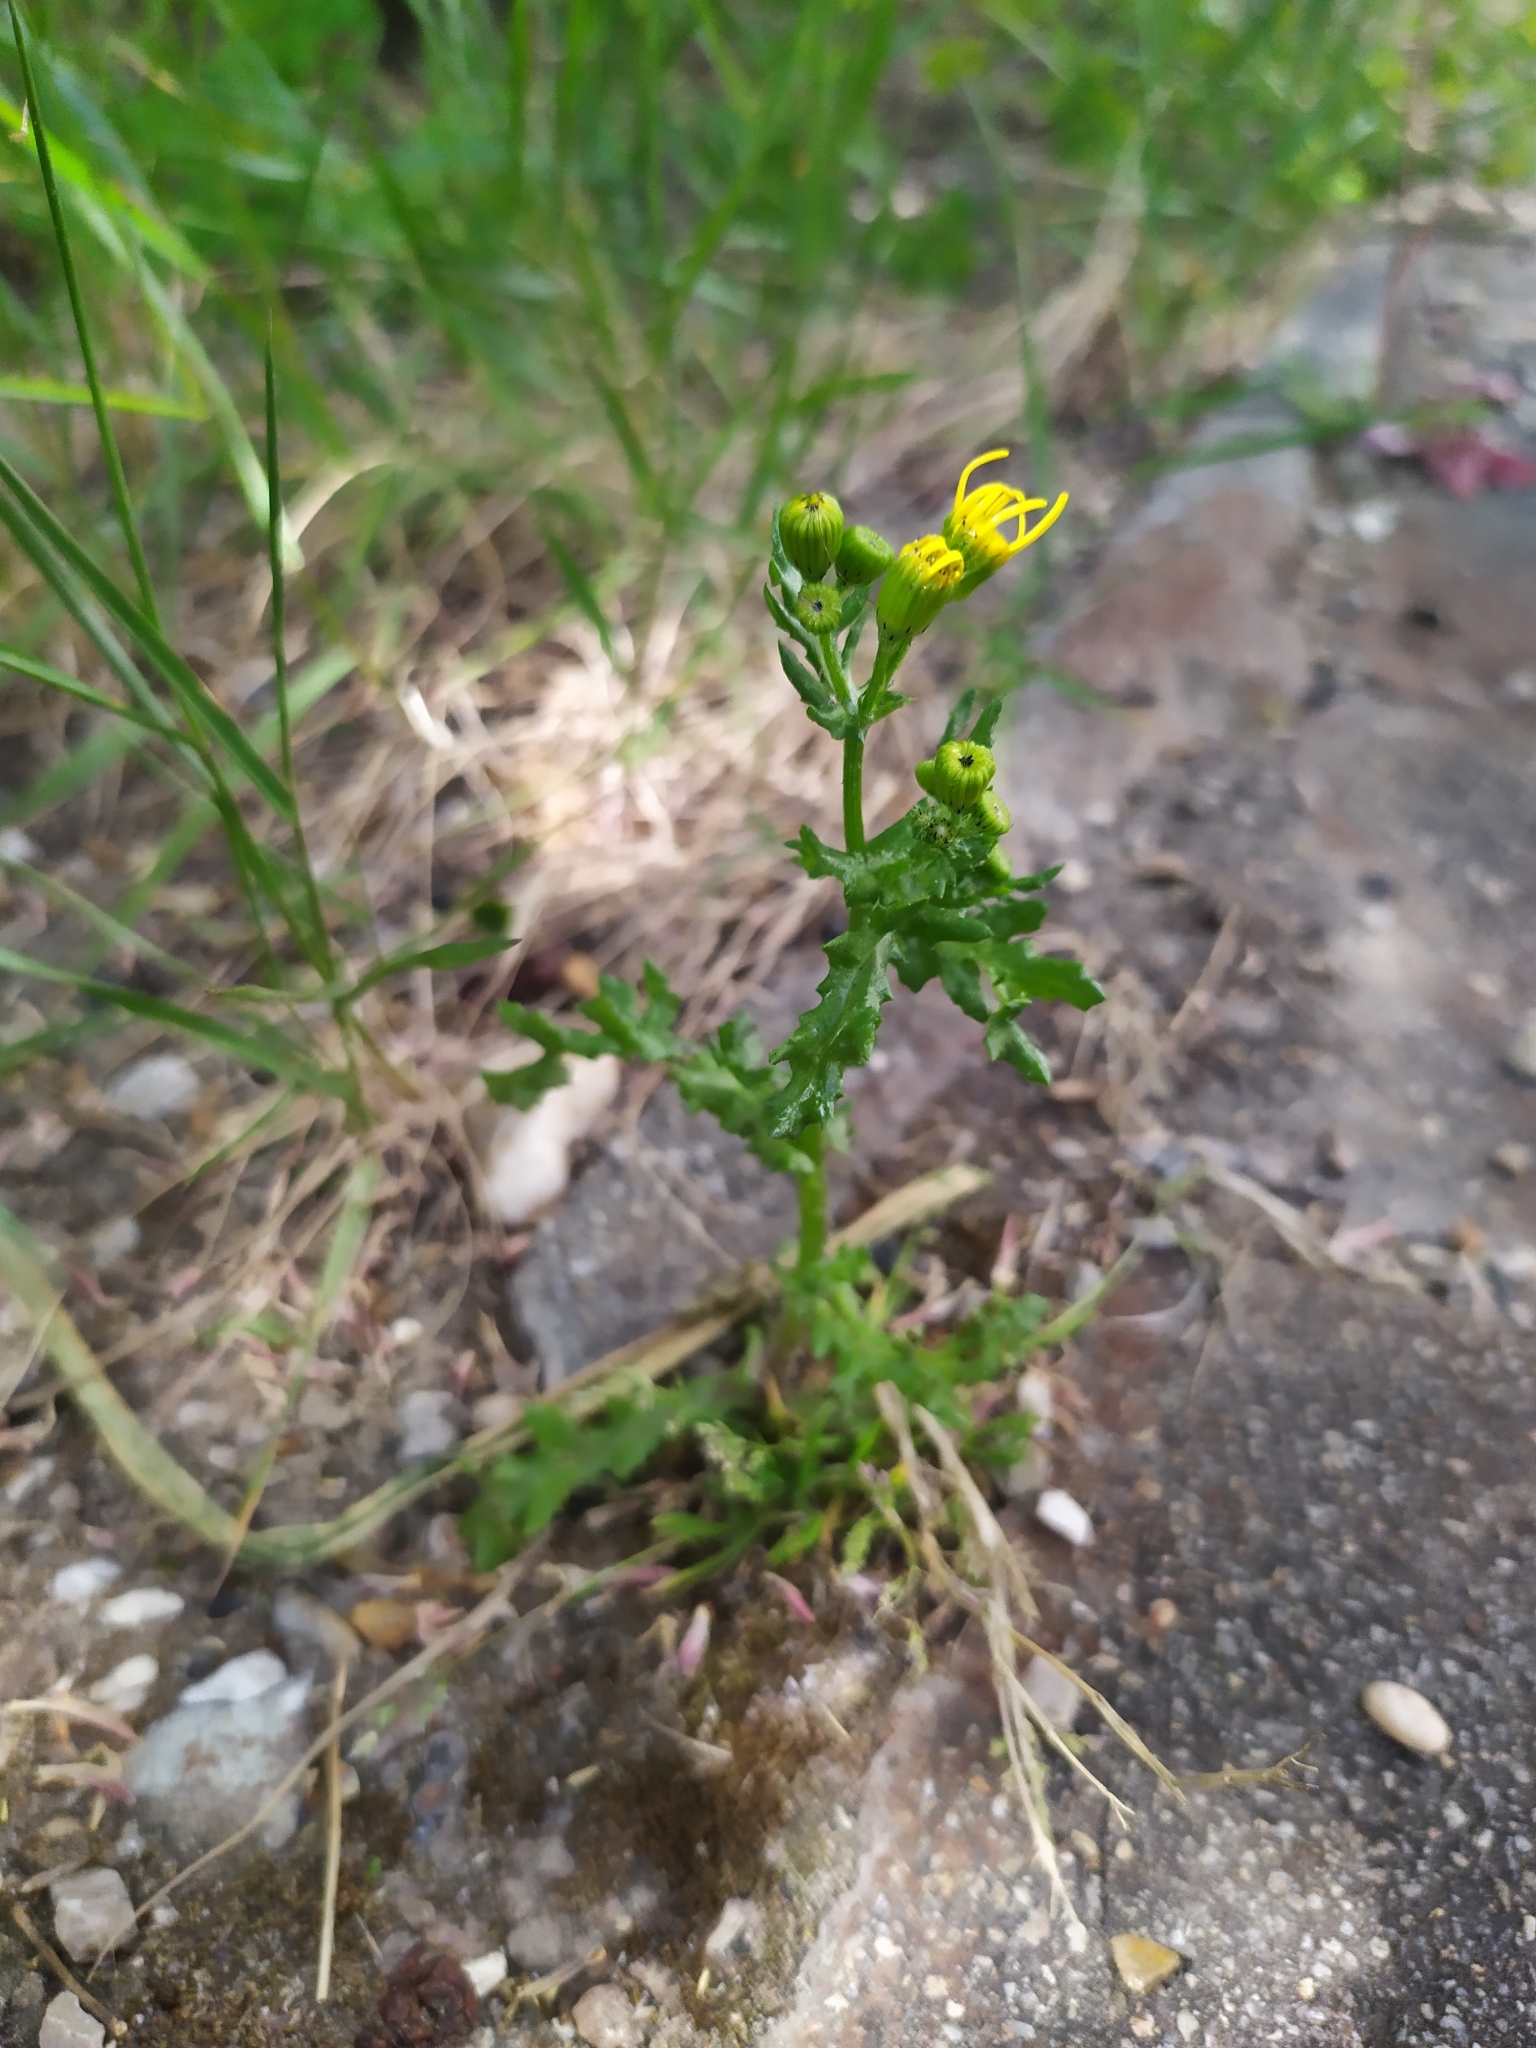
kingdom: Plantae
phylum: Tracheophyta
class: Magnoliopsida
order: Asterales
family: Asteraceae
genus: Senecio
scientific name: Senecio vernalis
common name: Eastern groundsel
